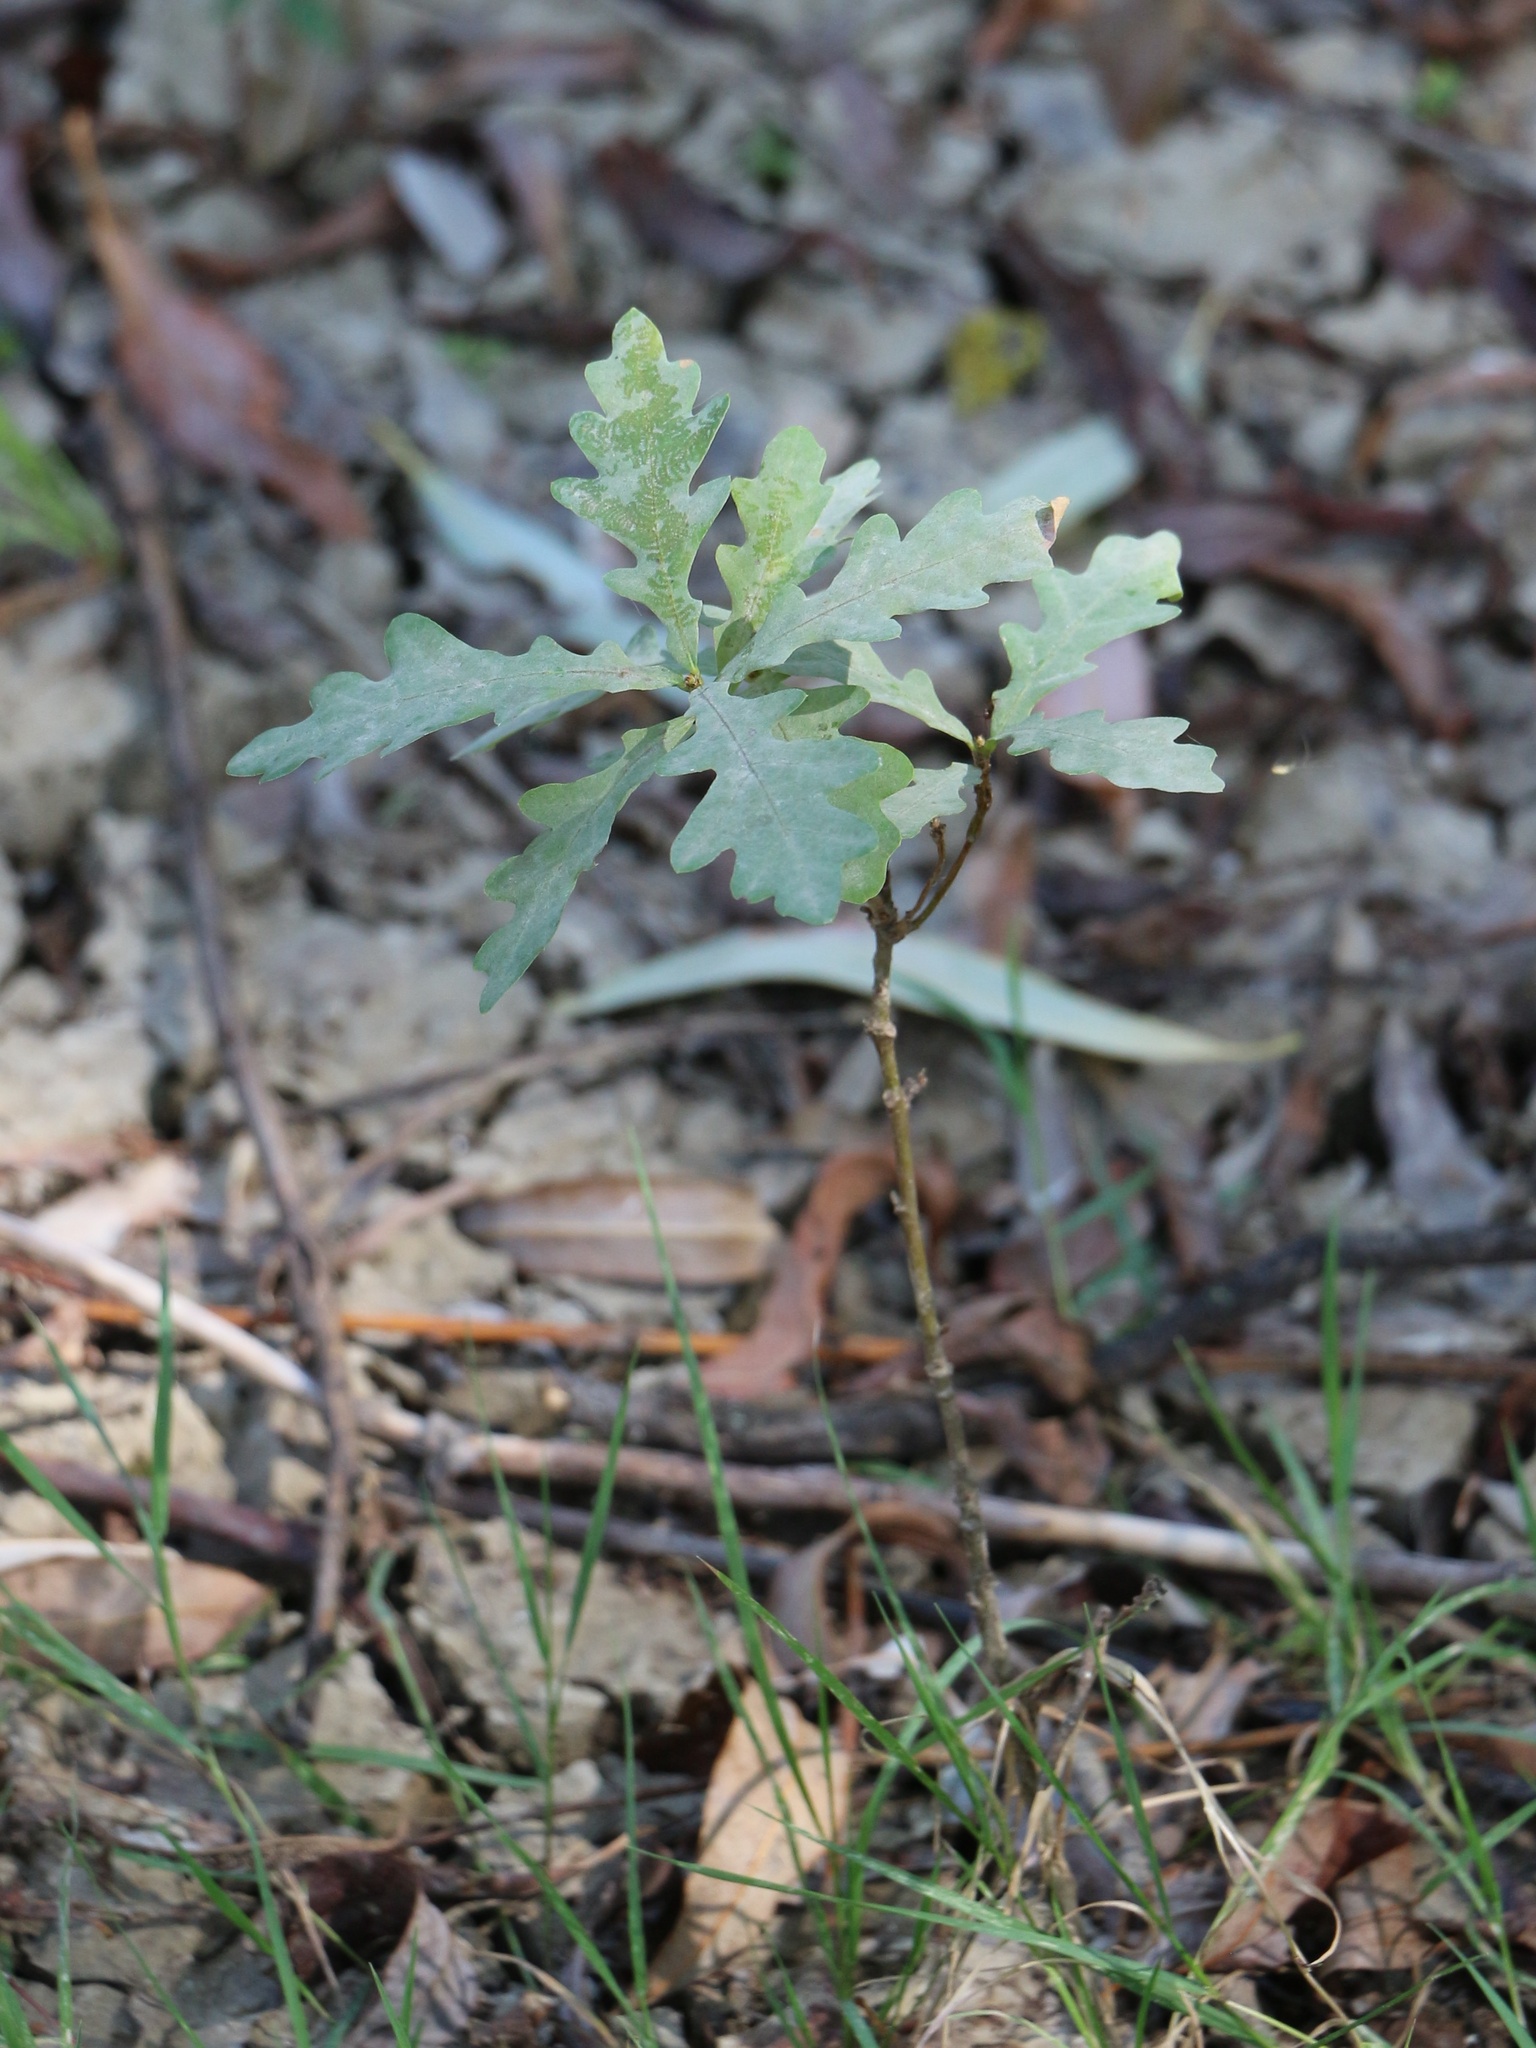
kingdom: Plantae
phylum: Tracheophyta
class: Magnoliopsida
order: Fagales
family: Fagaceae
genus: Quercus
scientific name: Quercus robur
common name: Pedunculate oak
